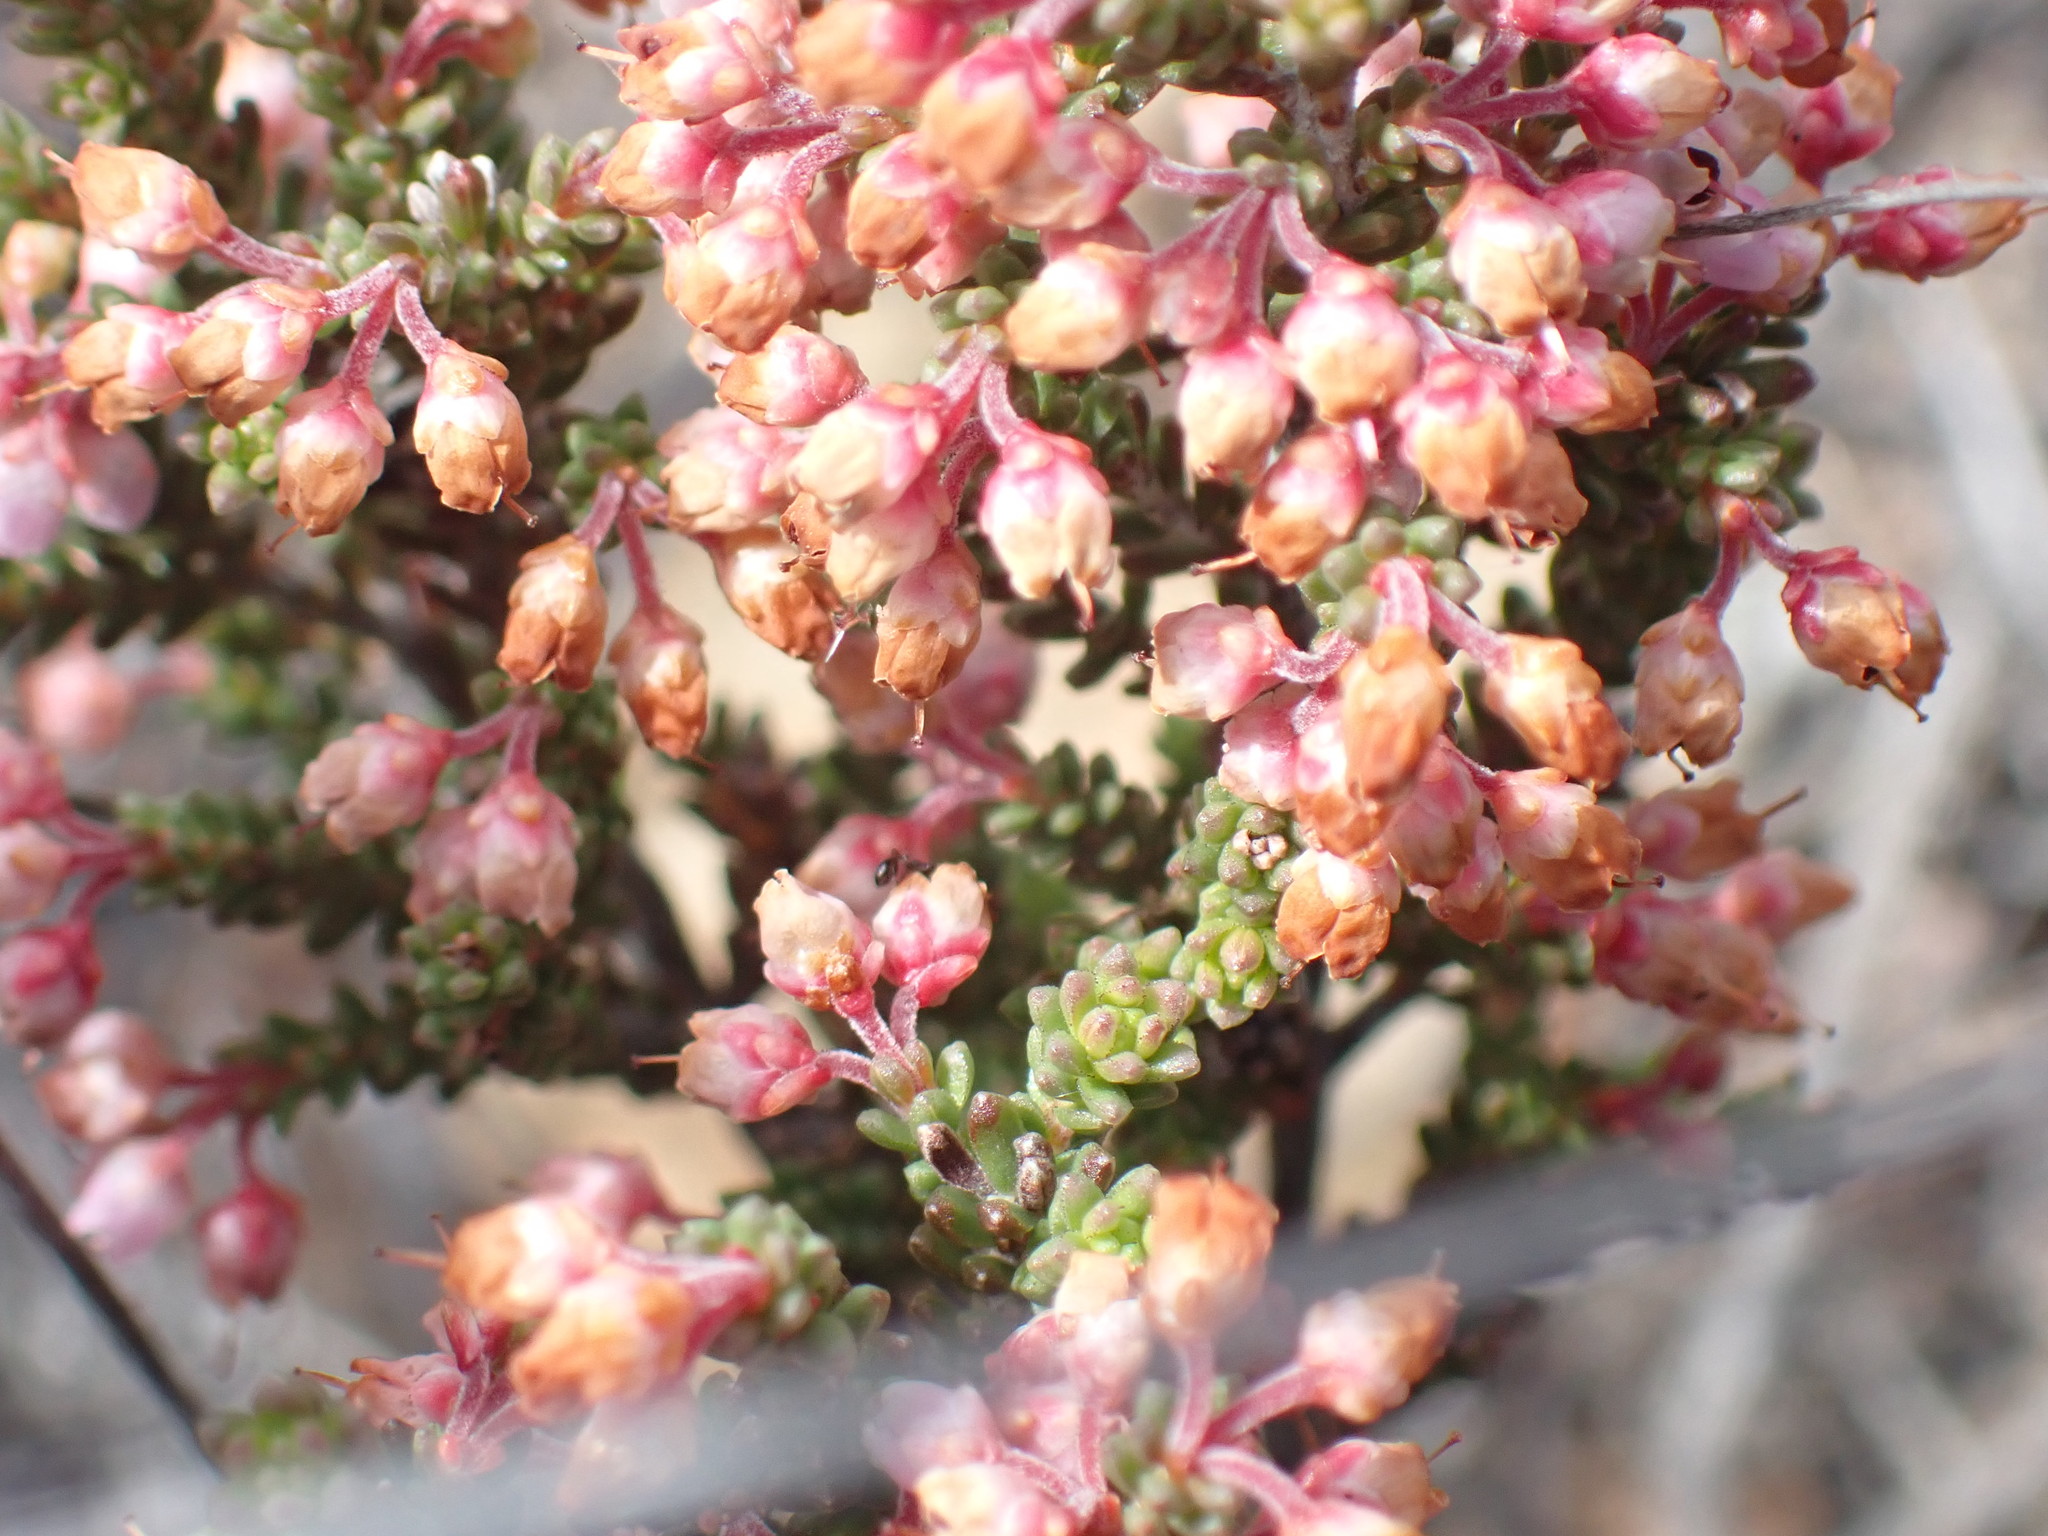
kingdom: Plantae
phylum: Tracheophyta
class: Magnoliopsida
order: Ericales
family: Ericaceae
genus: Erica
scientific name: Erica umbelliflora
